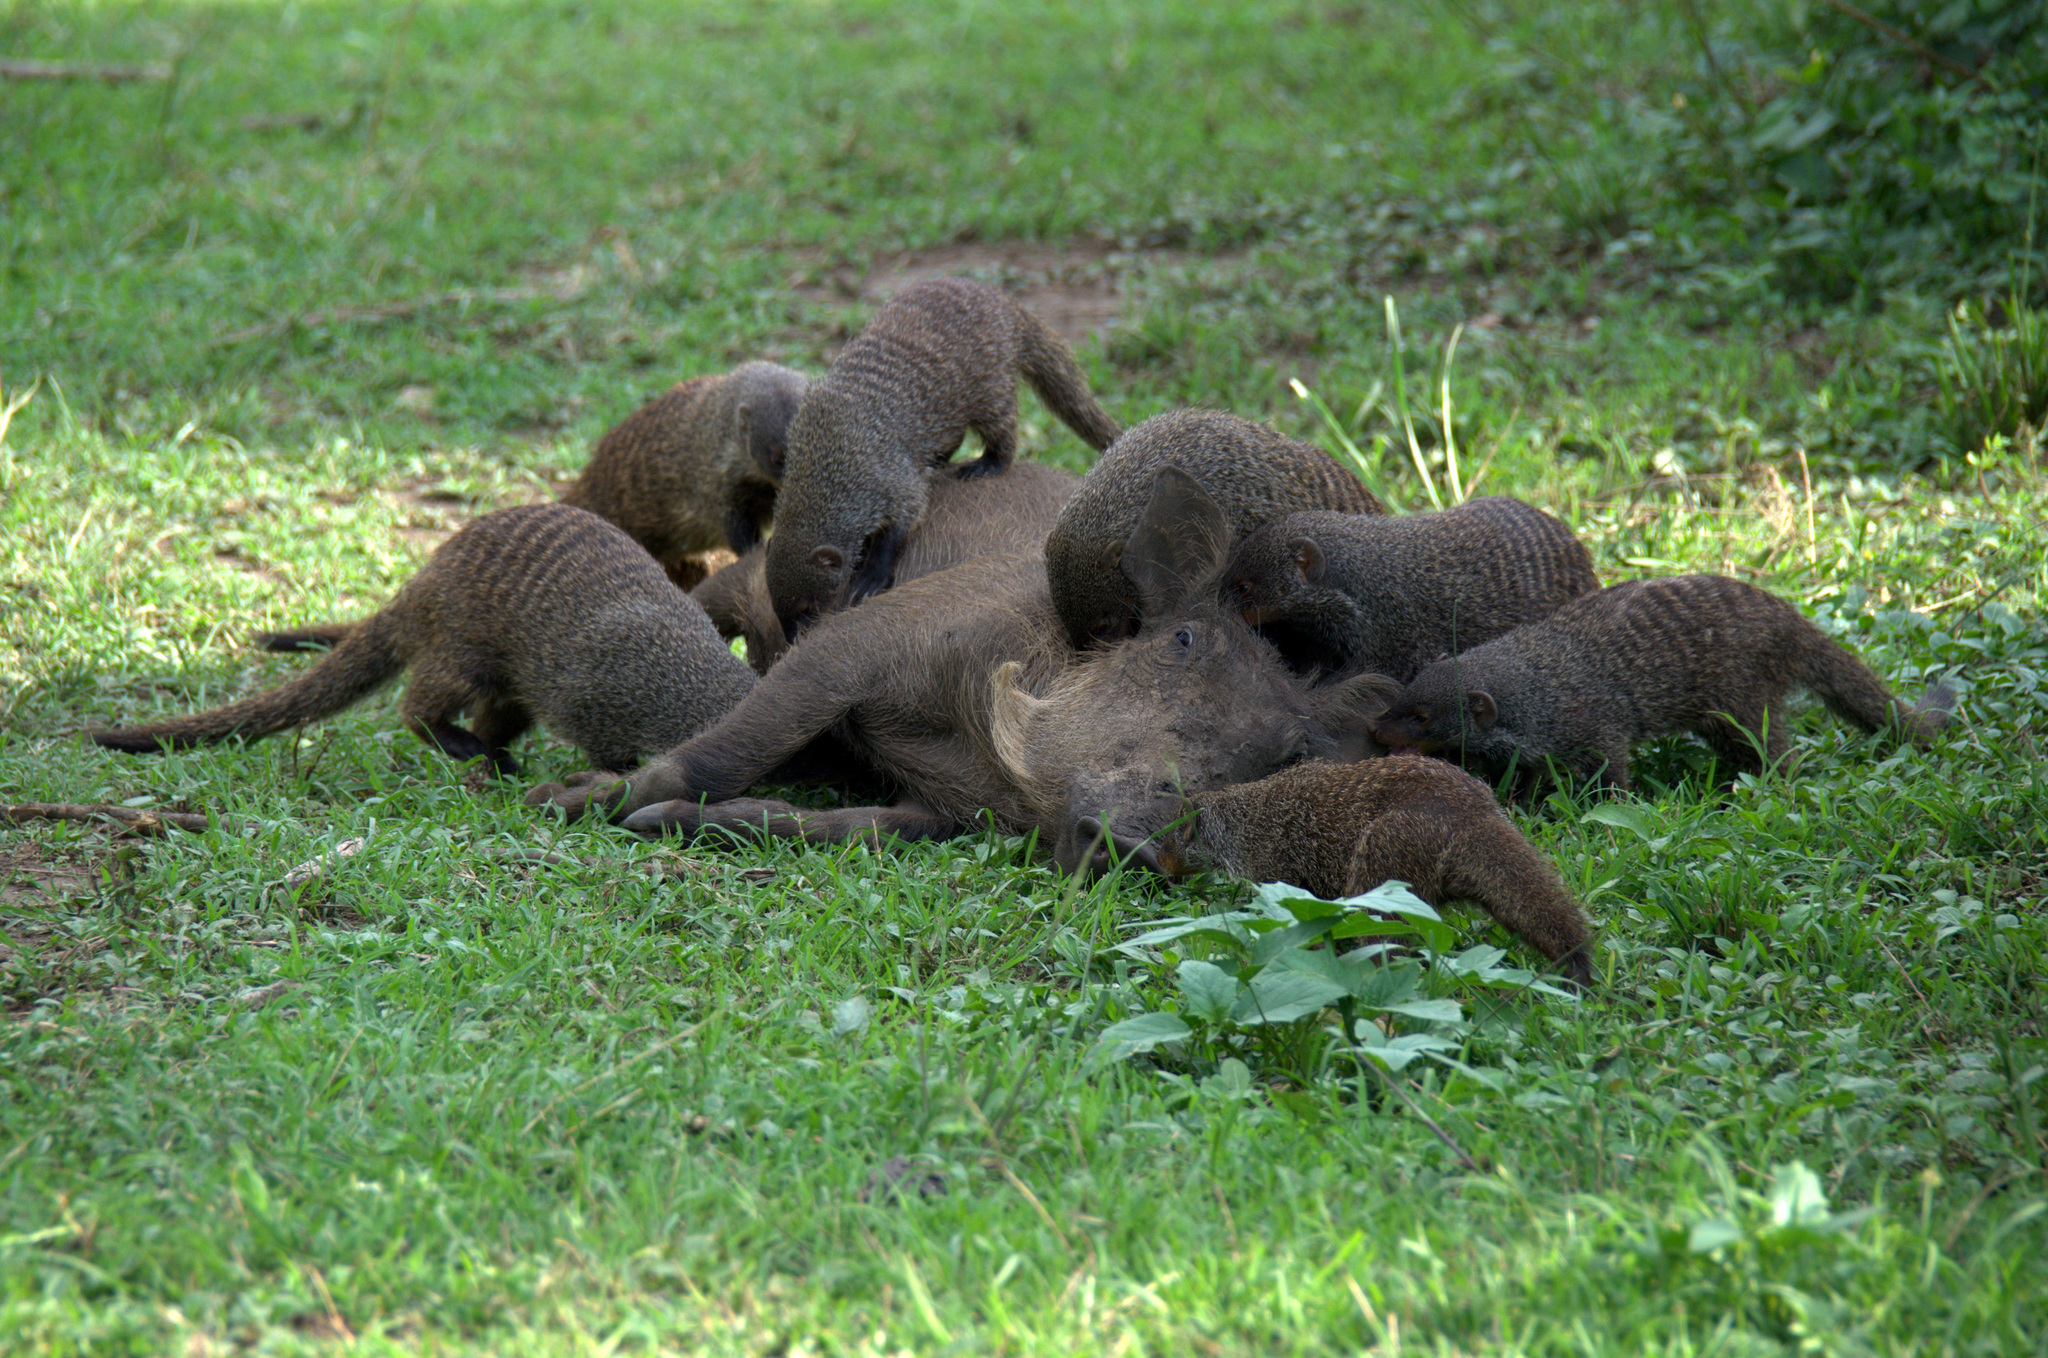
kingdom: Animalia
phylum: Chordata
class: Mammalia
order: Carnivora
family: Herpestidae
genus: Mungos
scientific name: Mungos mungo
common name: Banded mongoose
